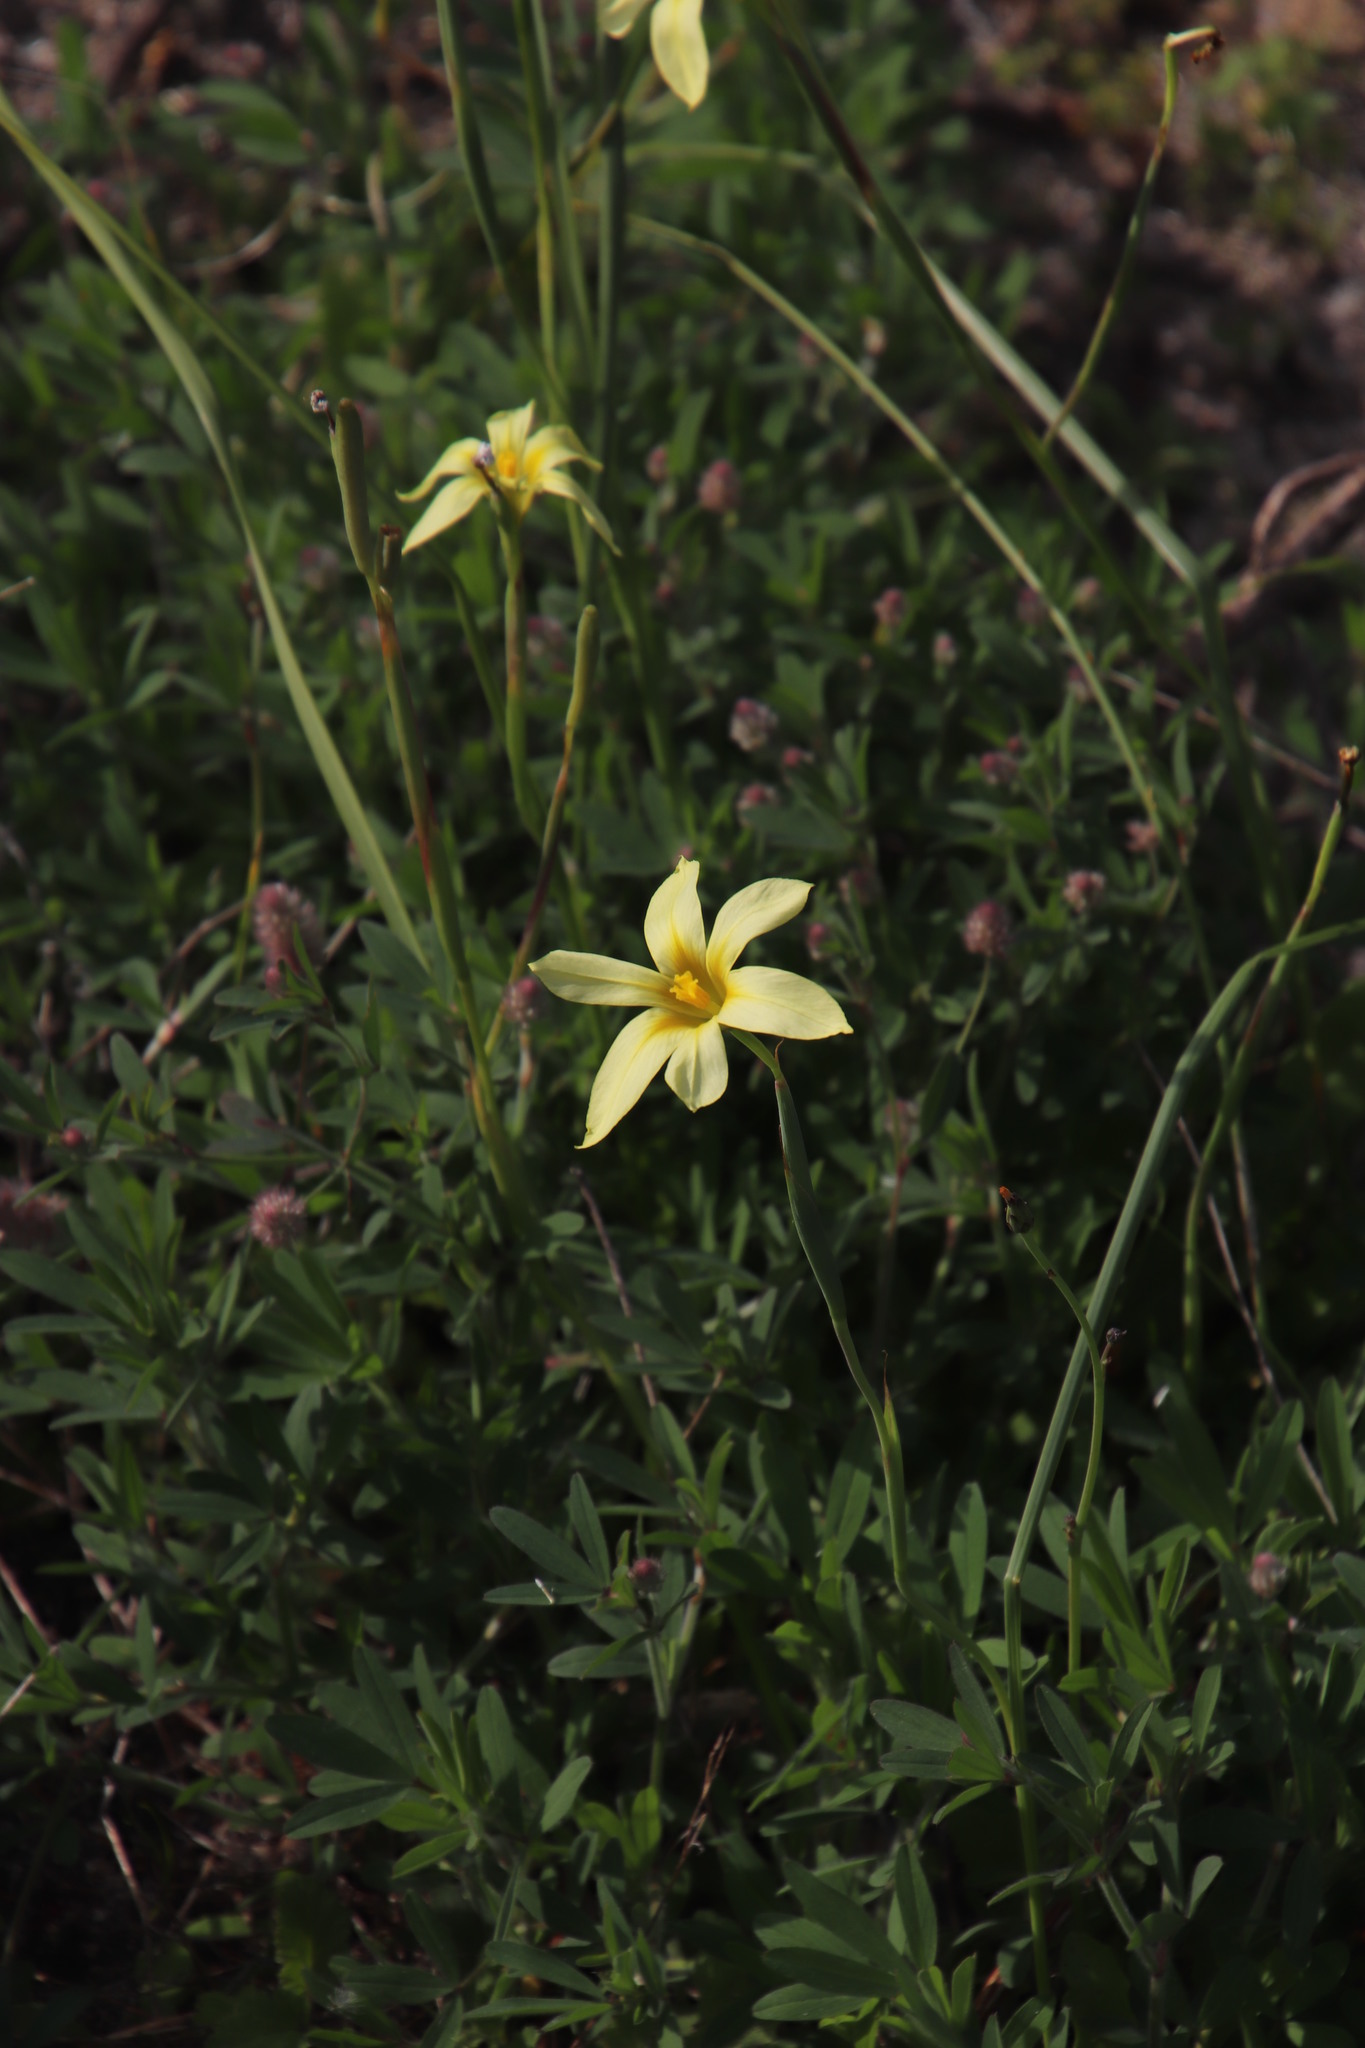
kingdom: Plantae
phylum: Tracheophyta
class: Liliopsida
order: Asparagales
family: Iridaceae
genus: Moraea
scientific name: Moraea collina
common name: Cape-tulip
